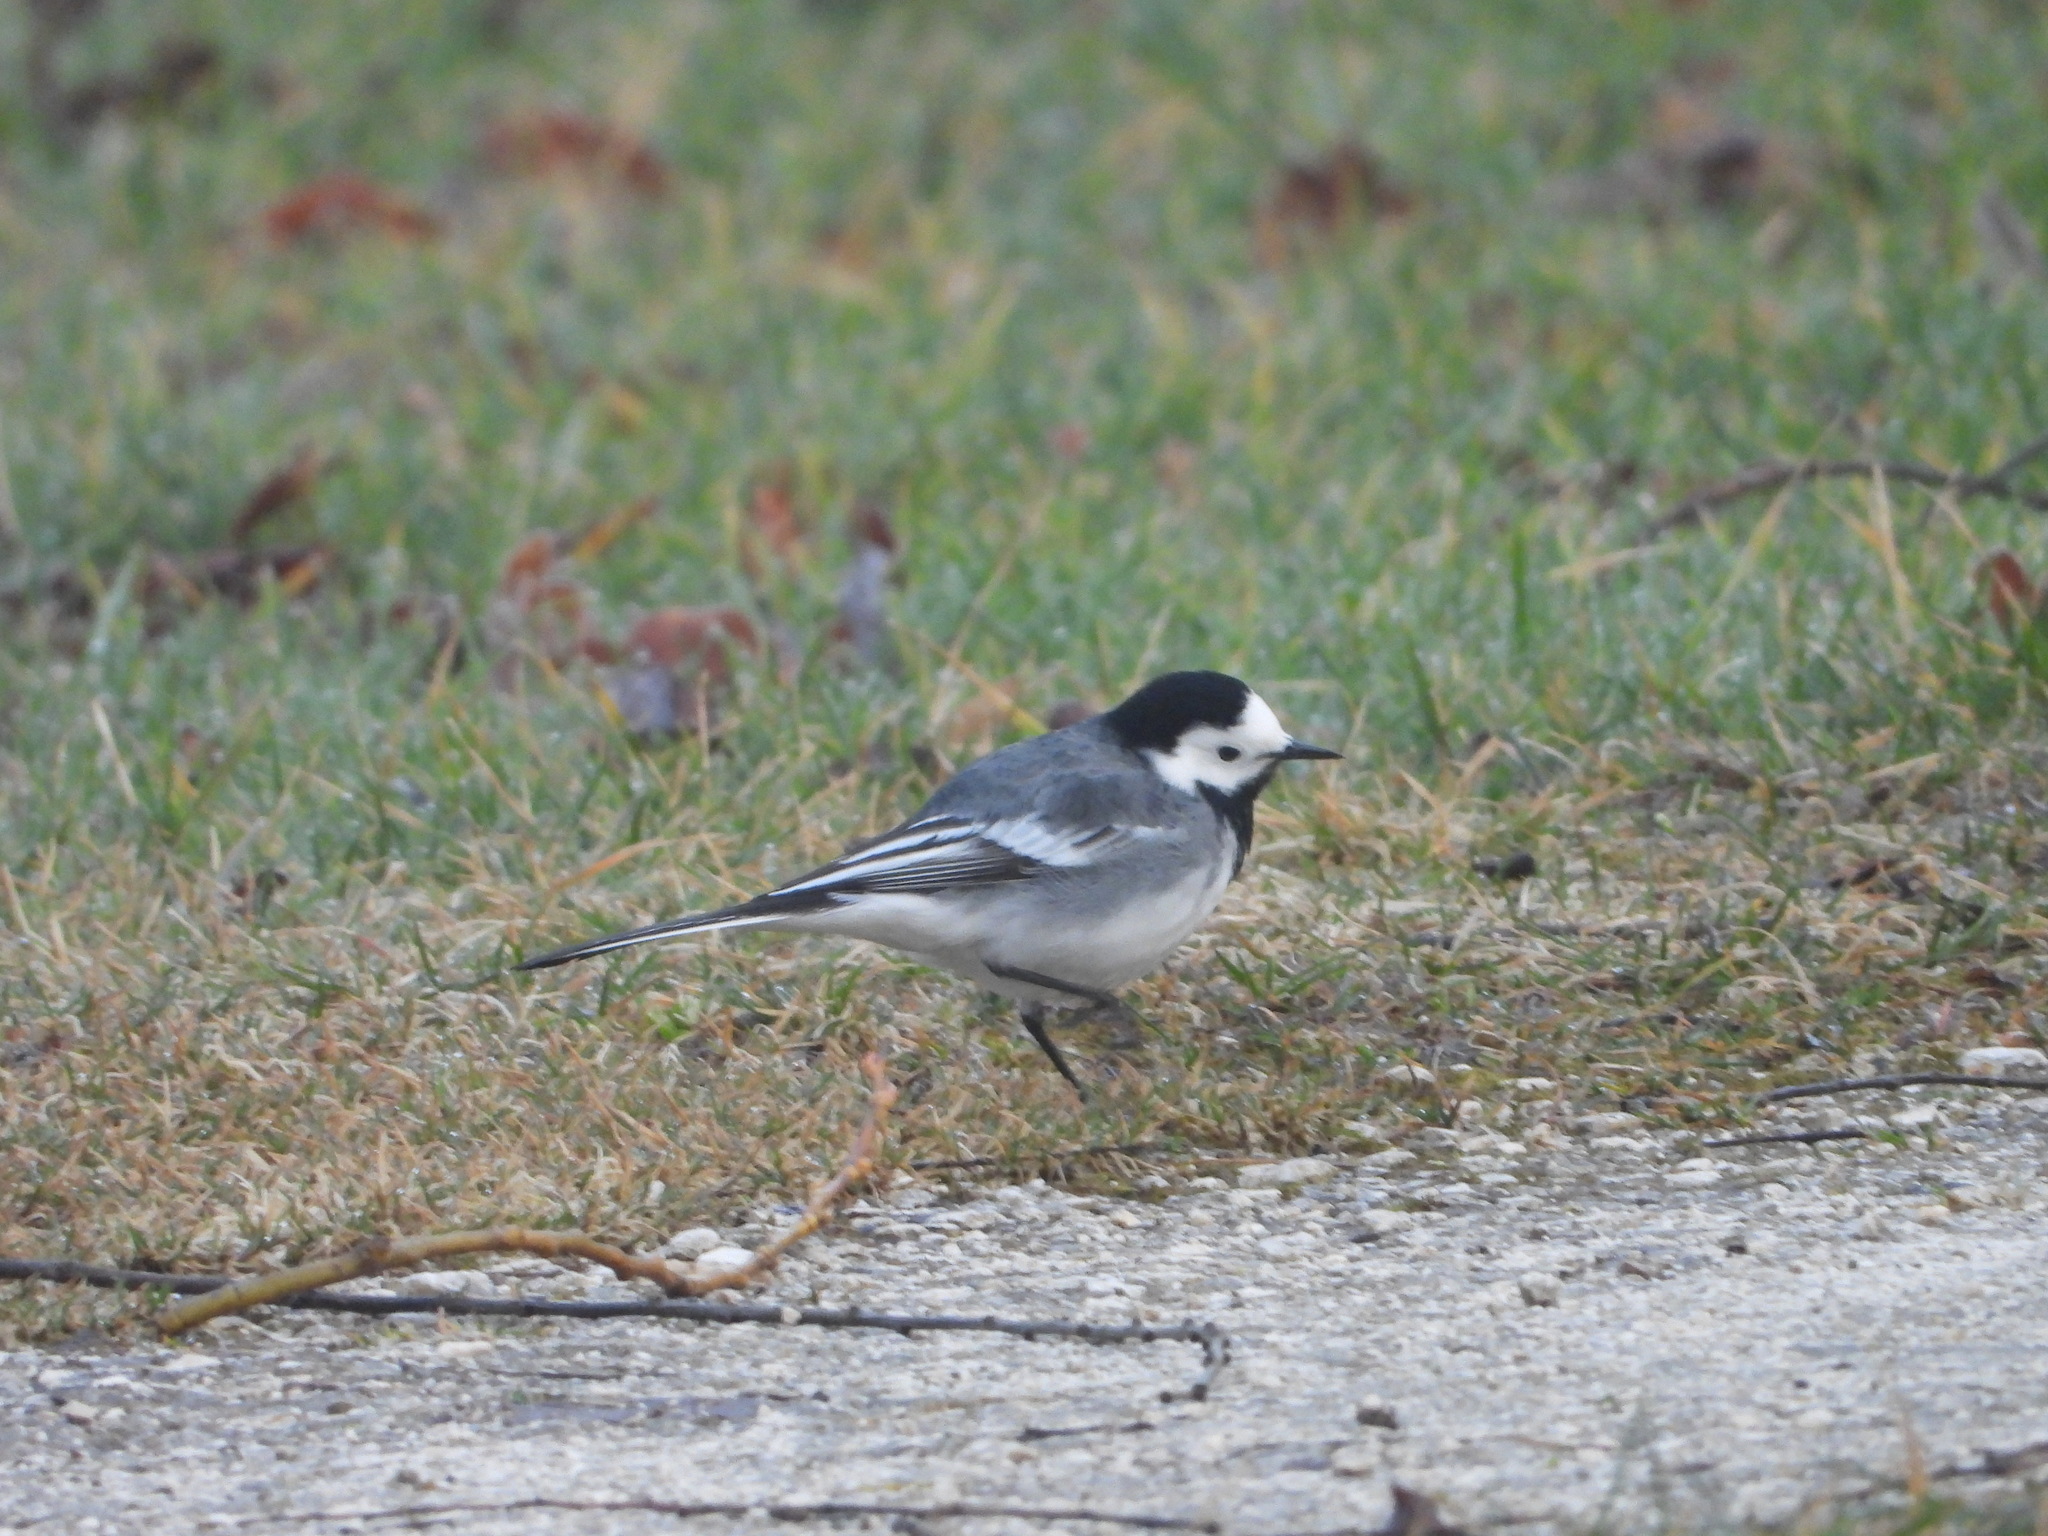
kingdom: Animalia
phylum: Chordata
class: Aves
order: Passeriformes
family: Motacillidae
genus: Motacilla
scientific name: Motacilla alba
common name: White wagtail
